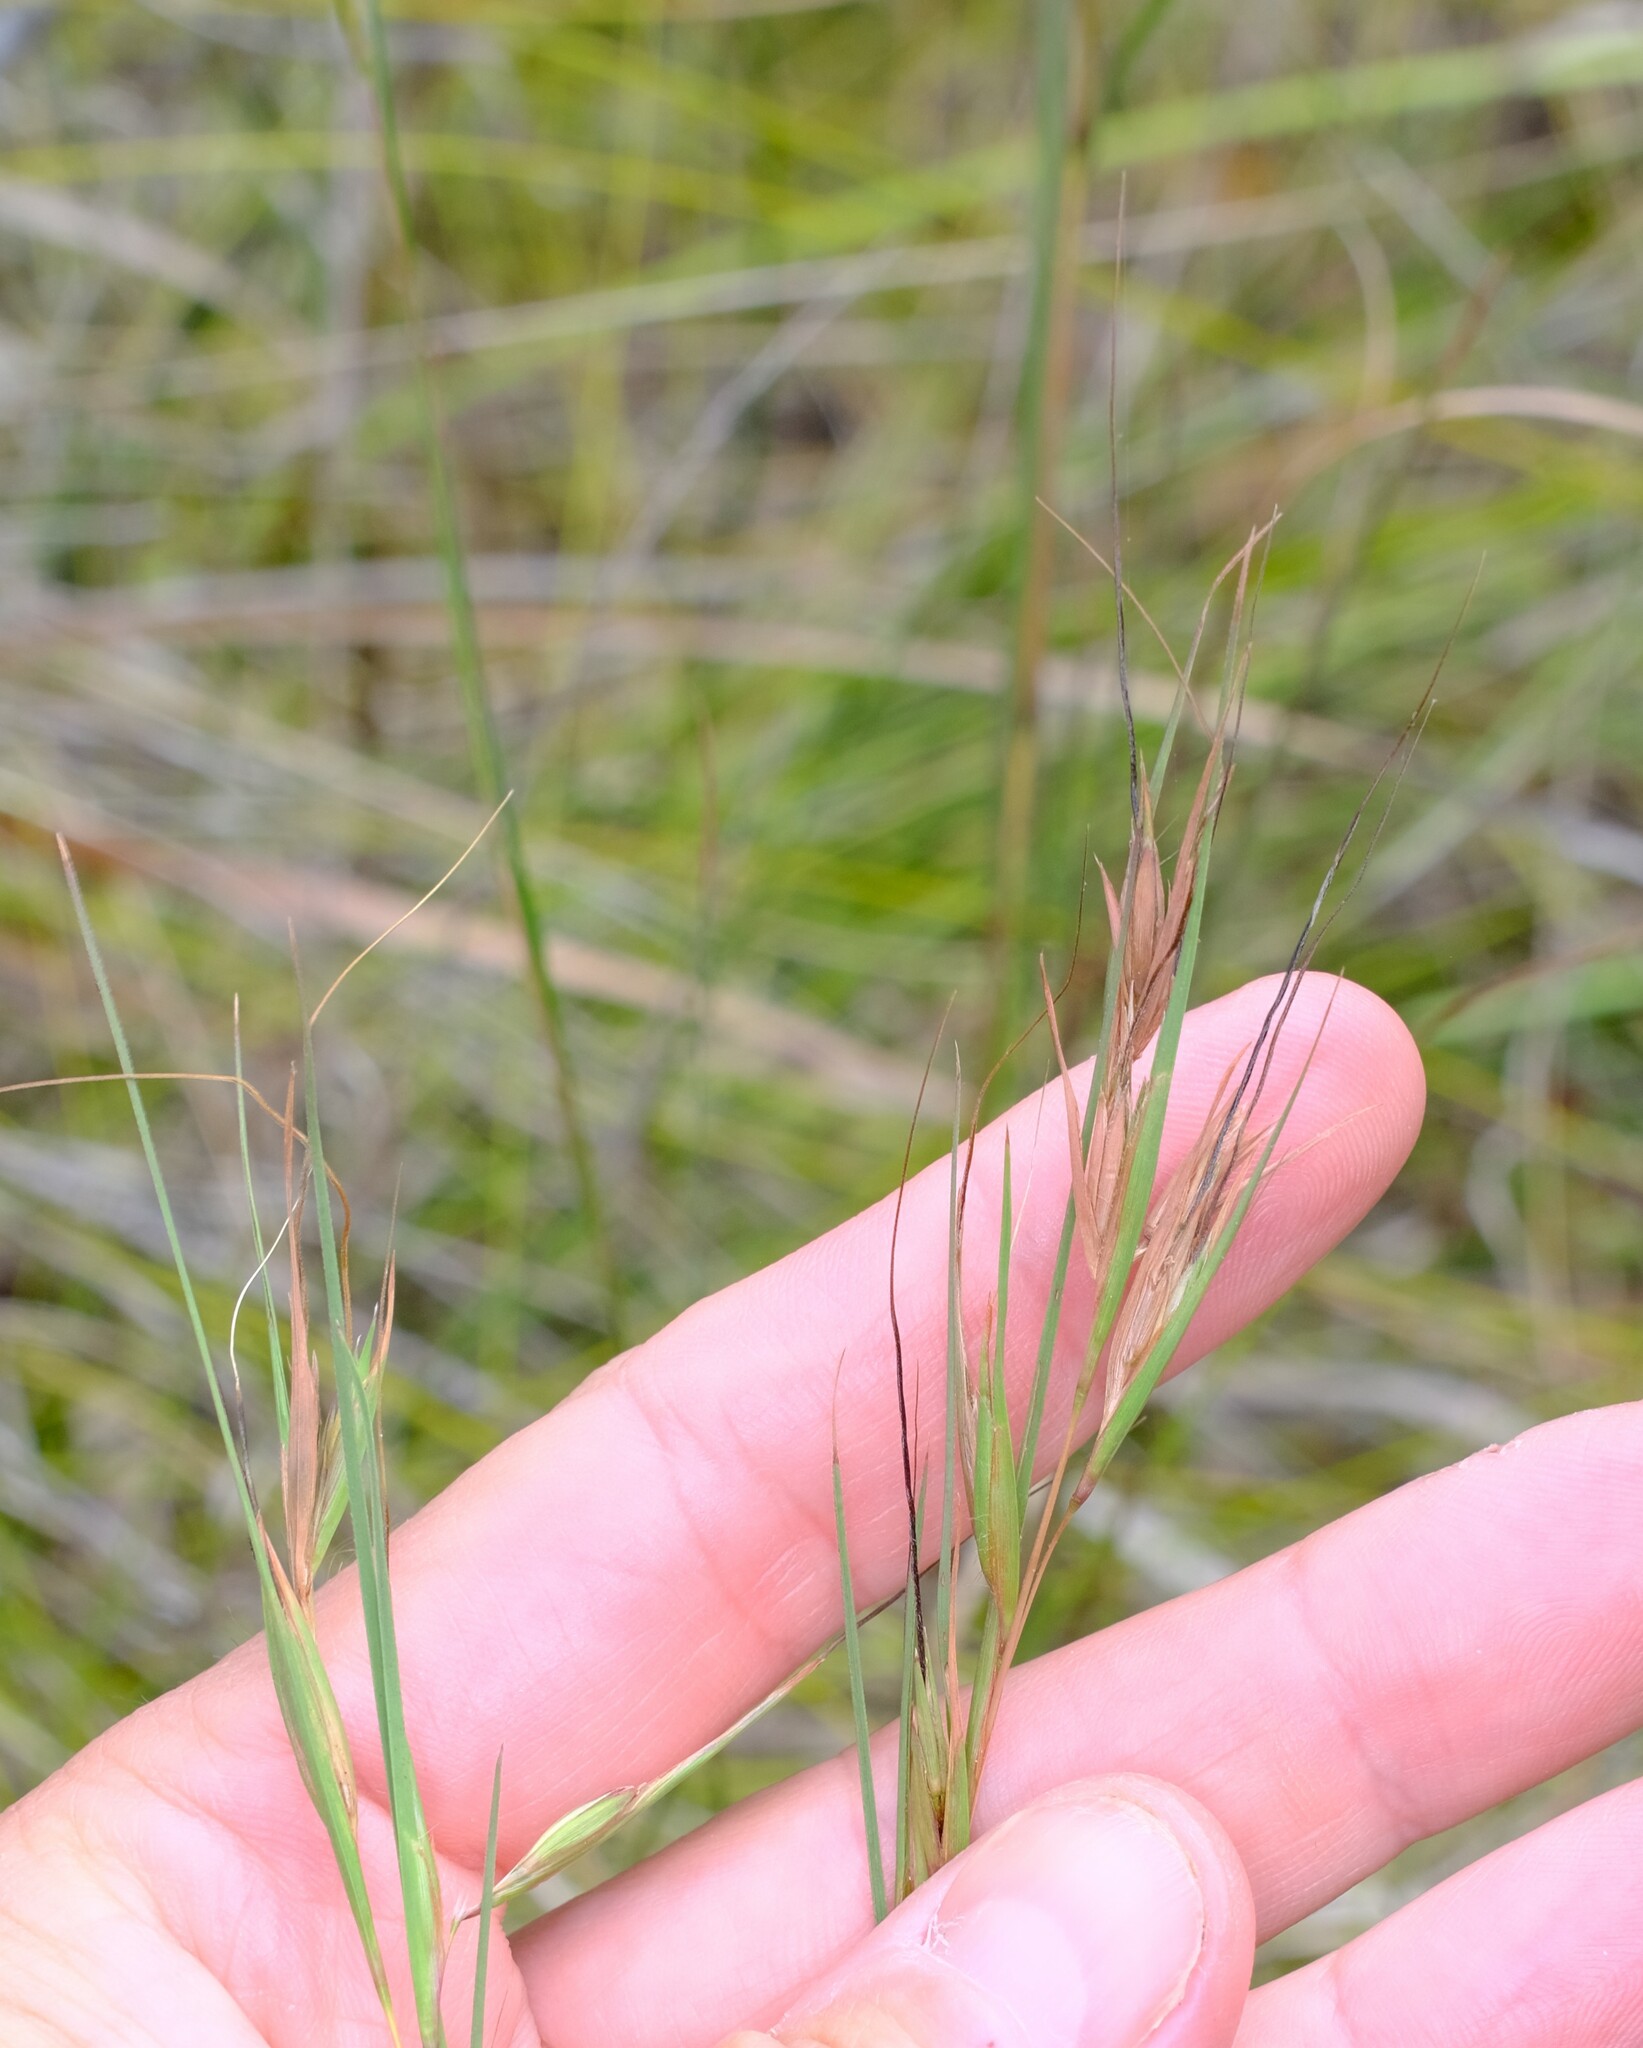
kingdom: Plantae
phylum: Tracheophyta
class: Liliopsida
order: Poales
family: Poaceae
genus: Themeda
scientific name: Themeda triandra
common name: Kangaroo grass
